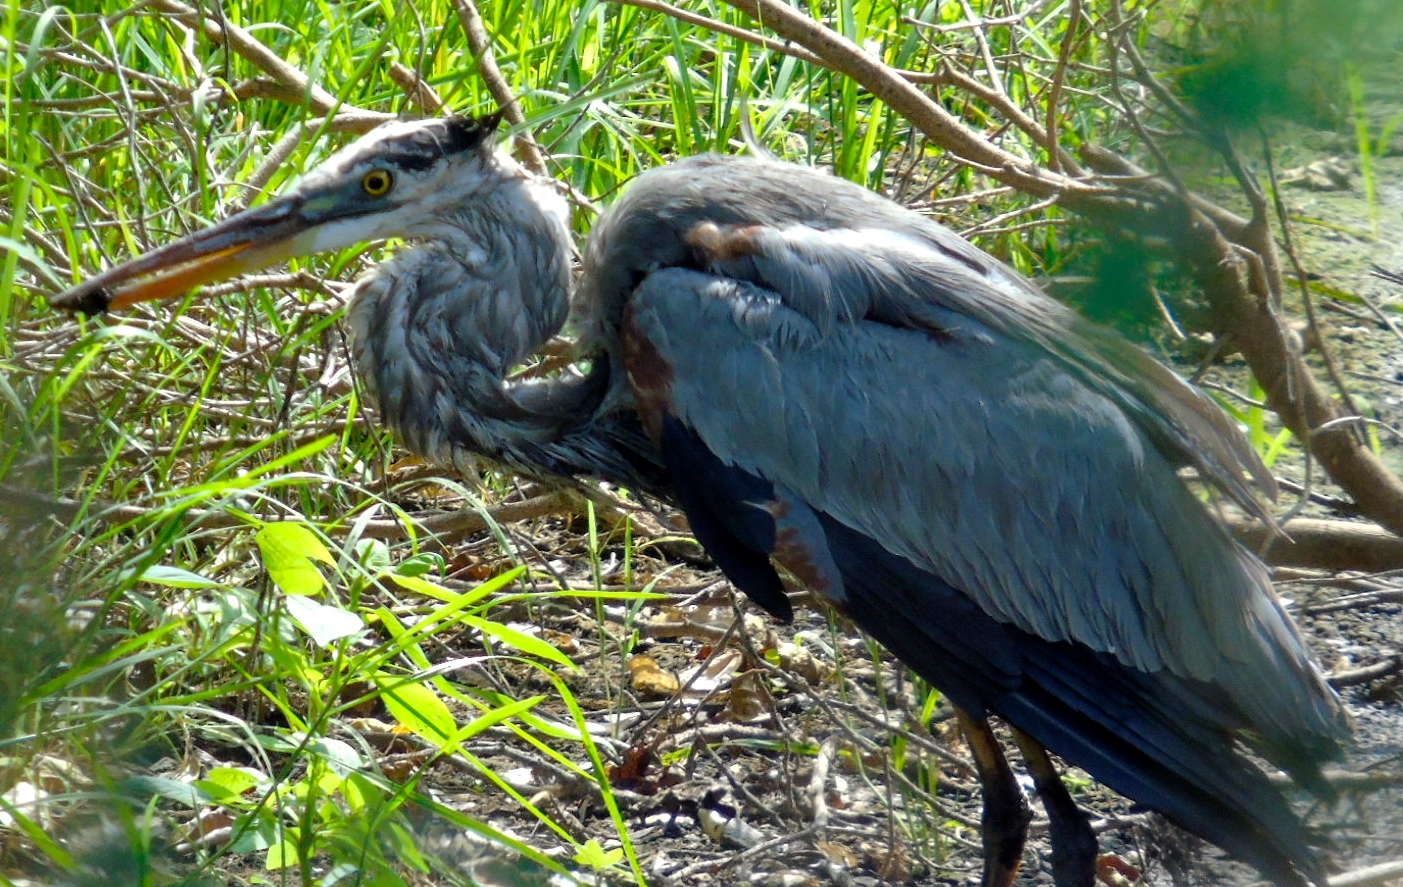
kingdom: Animalia
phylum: Chordata
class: Aves
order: Pelecaniformes
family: Ardeidae
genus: Ardea
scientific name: Ardea herodias
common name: Great blue heron
